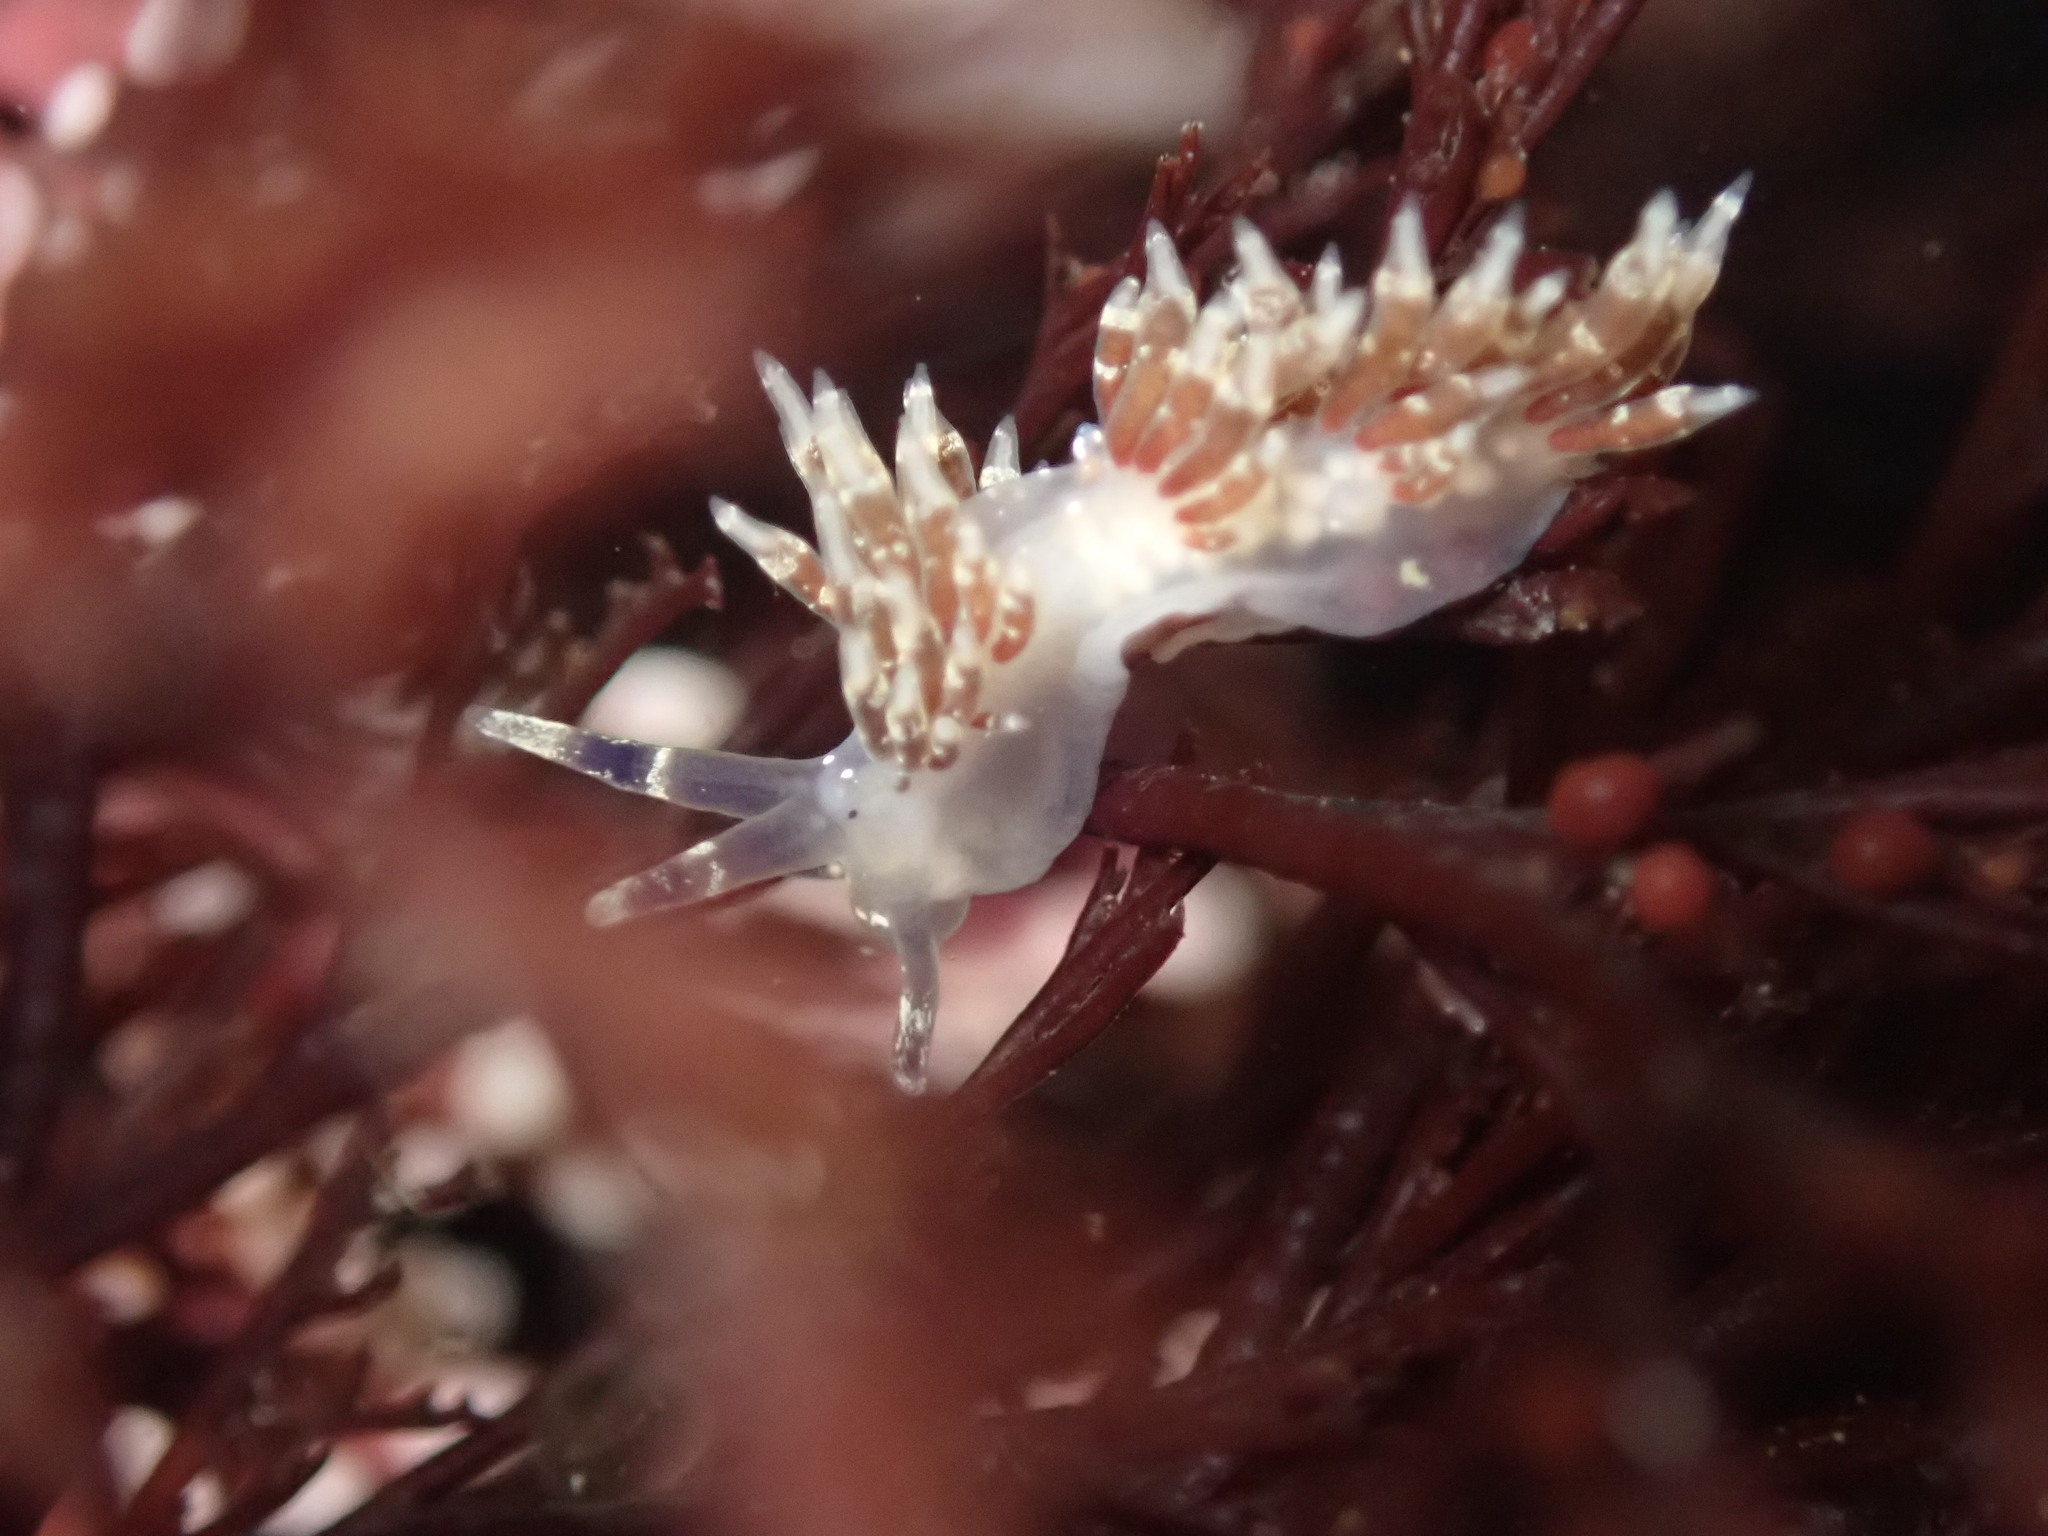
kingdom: Animalia
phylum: Mollusca
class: Gastropoda
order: Nudibranchia
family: Abronicidae
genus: Abronica
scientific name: Abronica abronia
